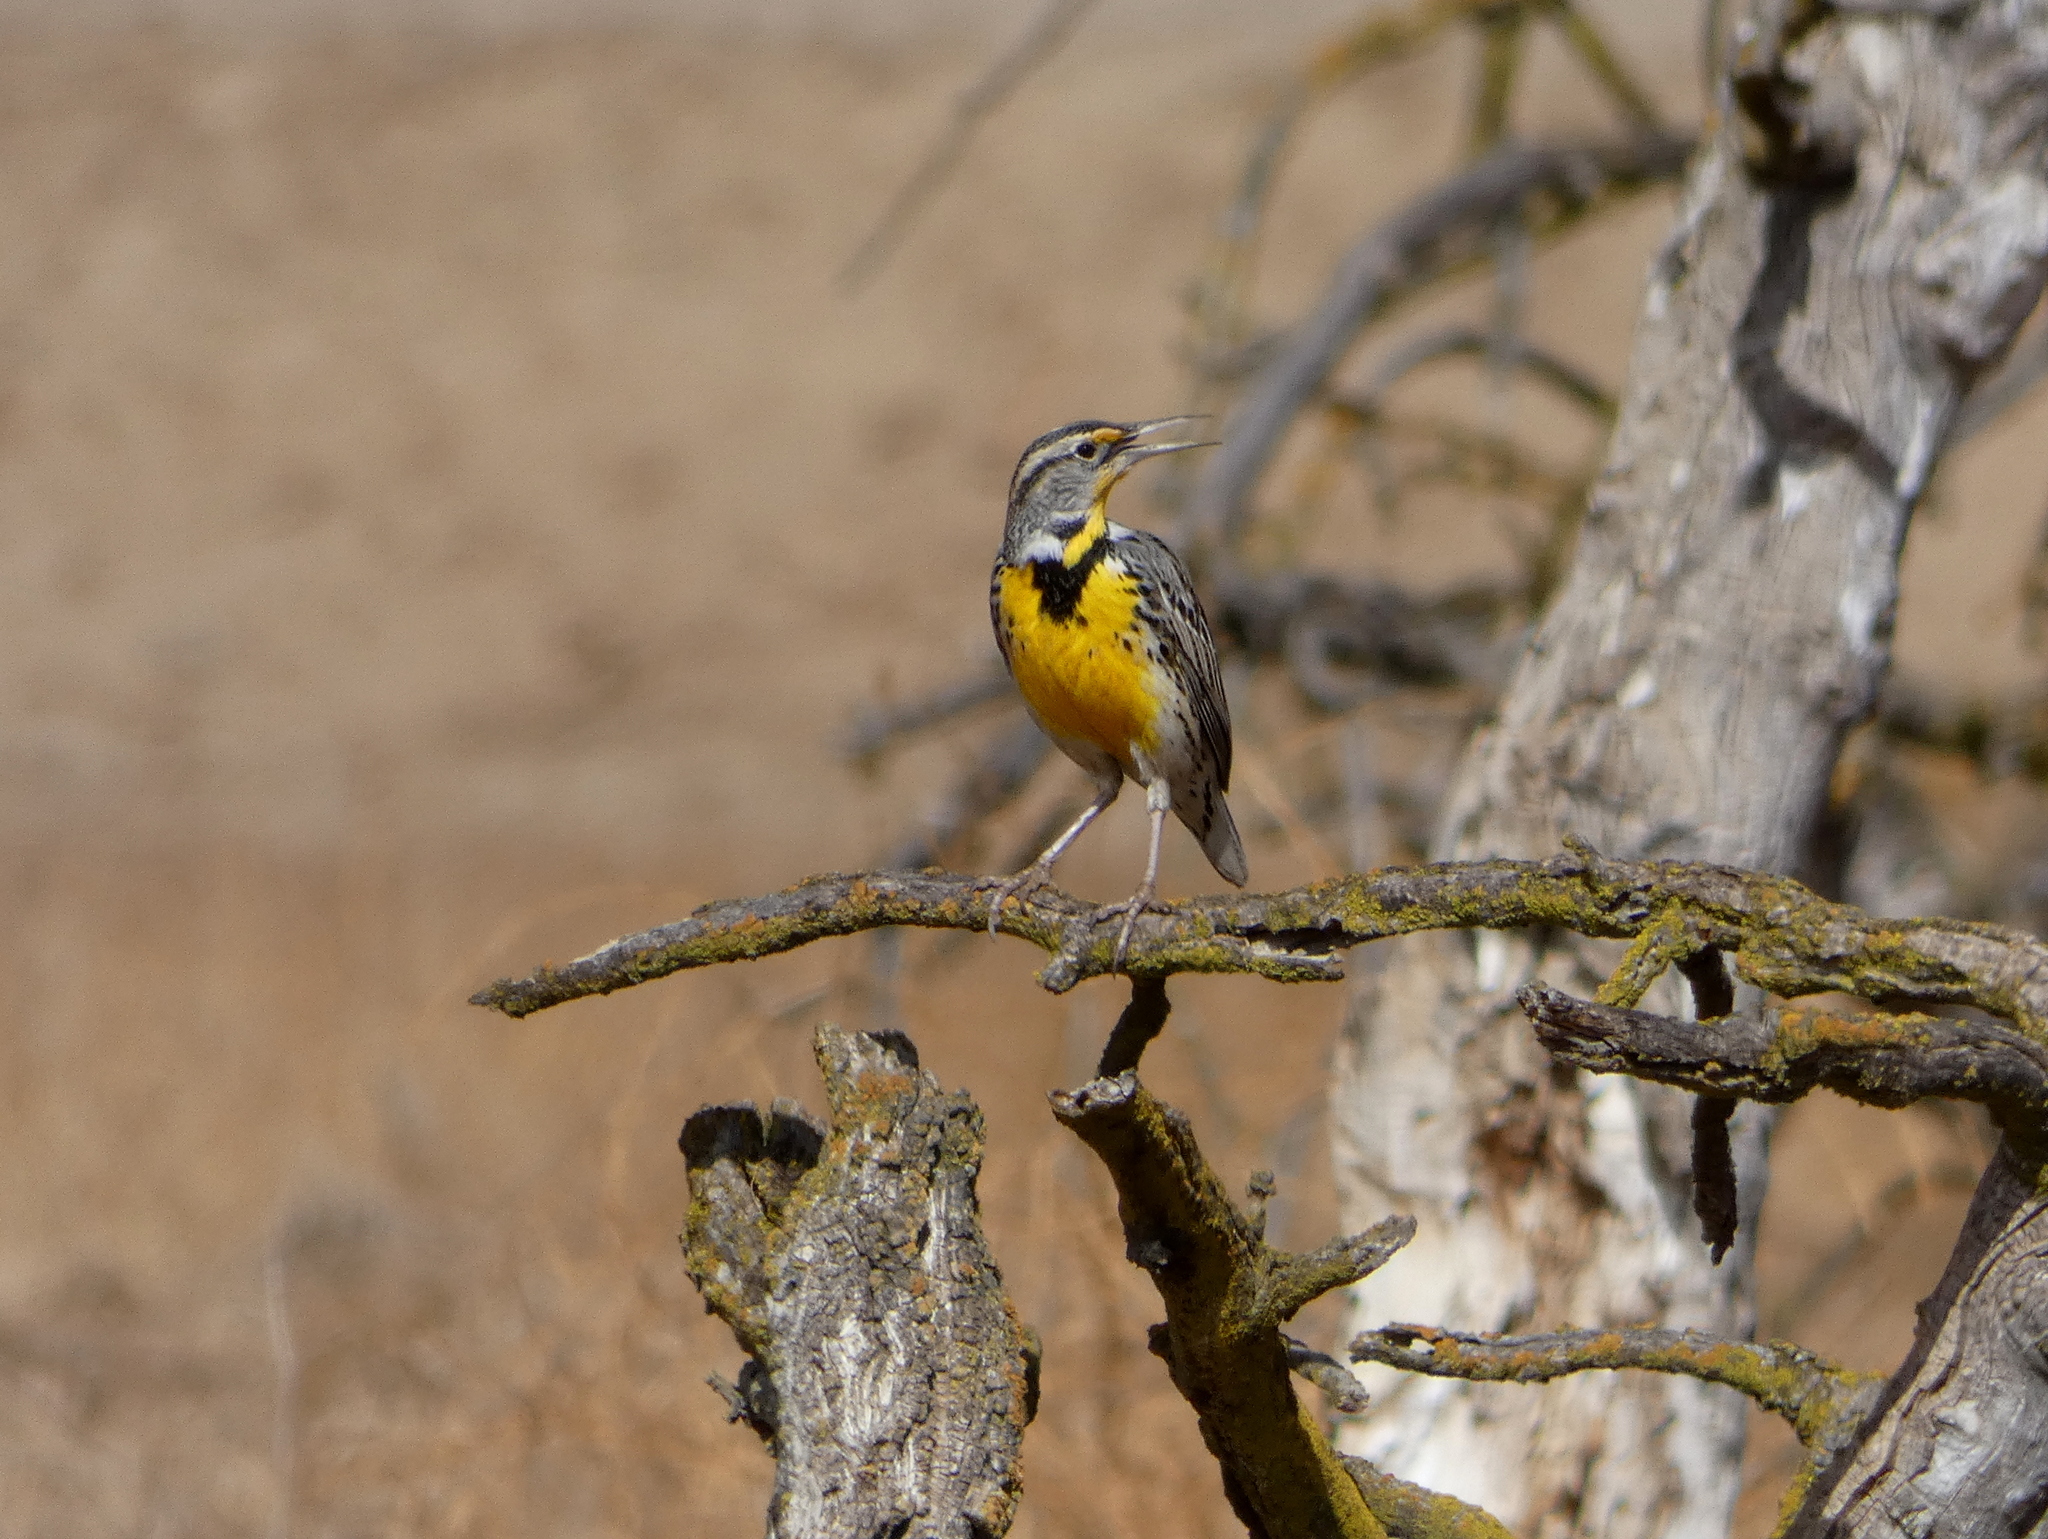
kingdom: Animalia
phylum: Chordata
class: Aves
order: Passeriformes
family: Icteridae
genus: Sturnella
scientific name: Sturnella neglecta
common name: Western meadowlark
